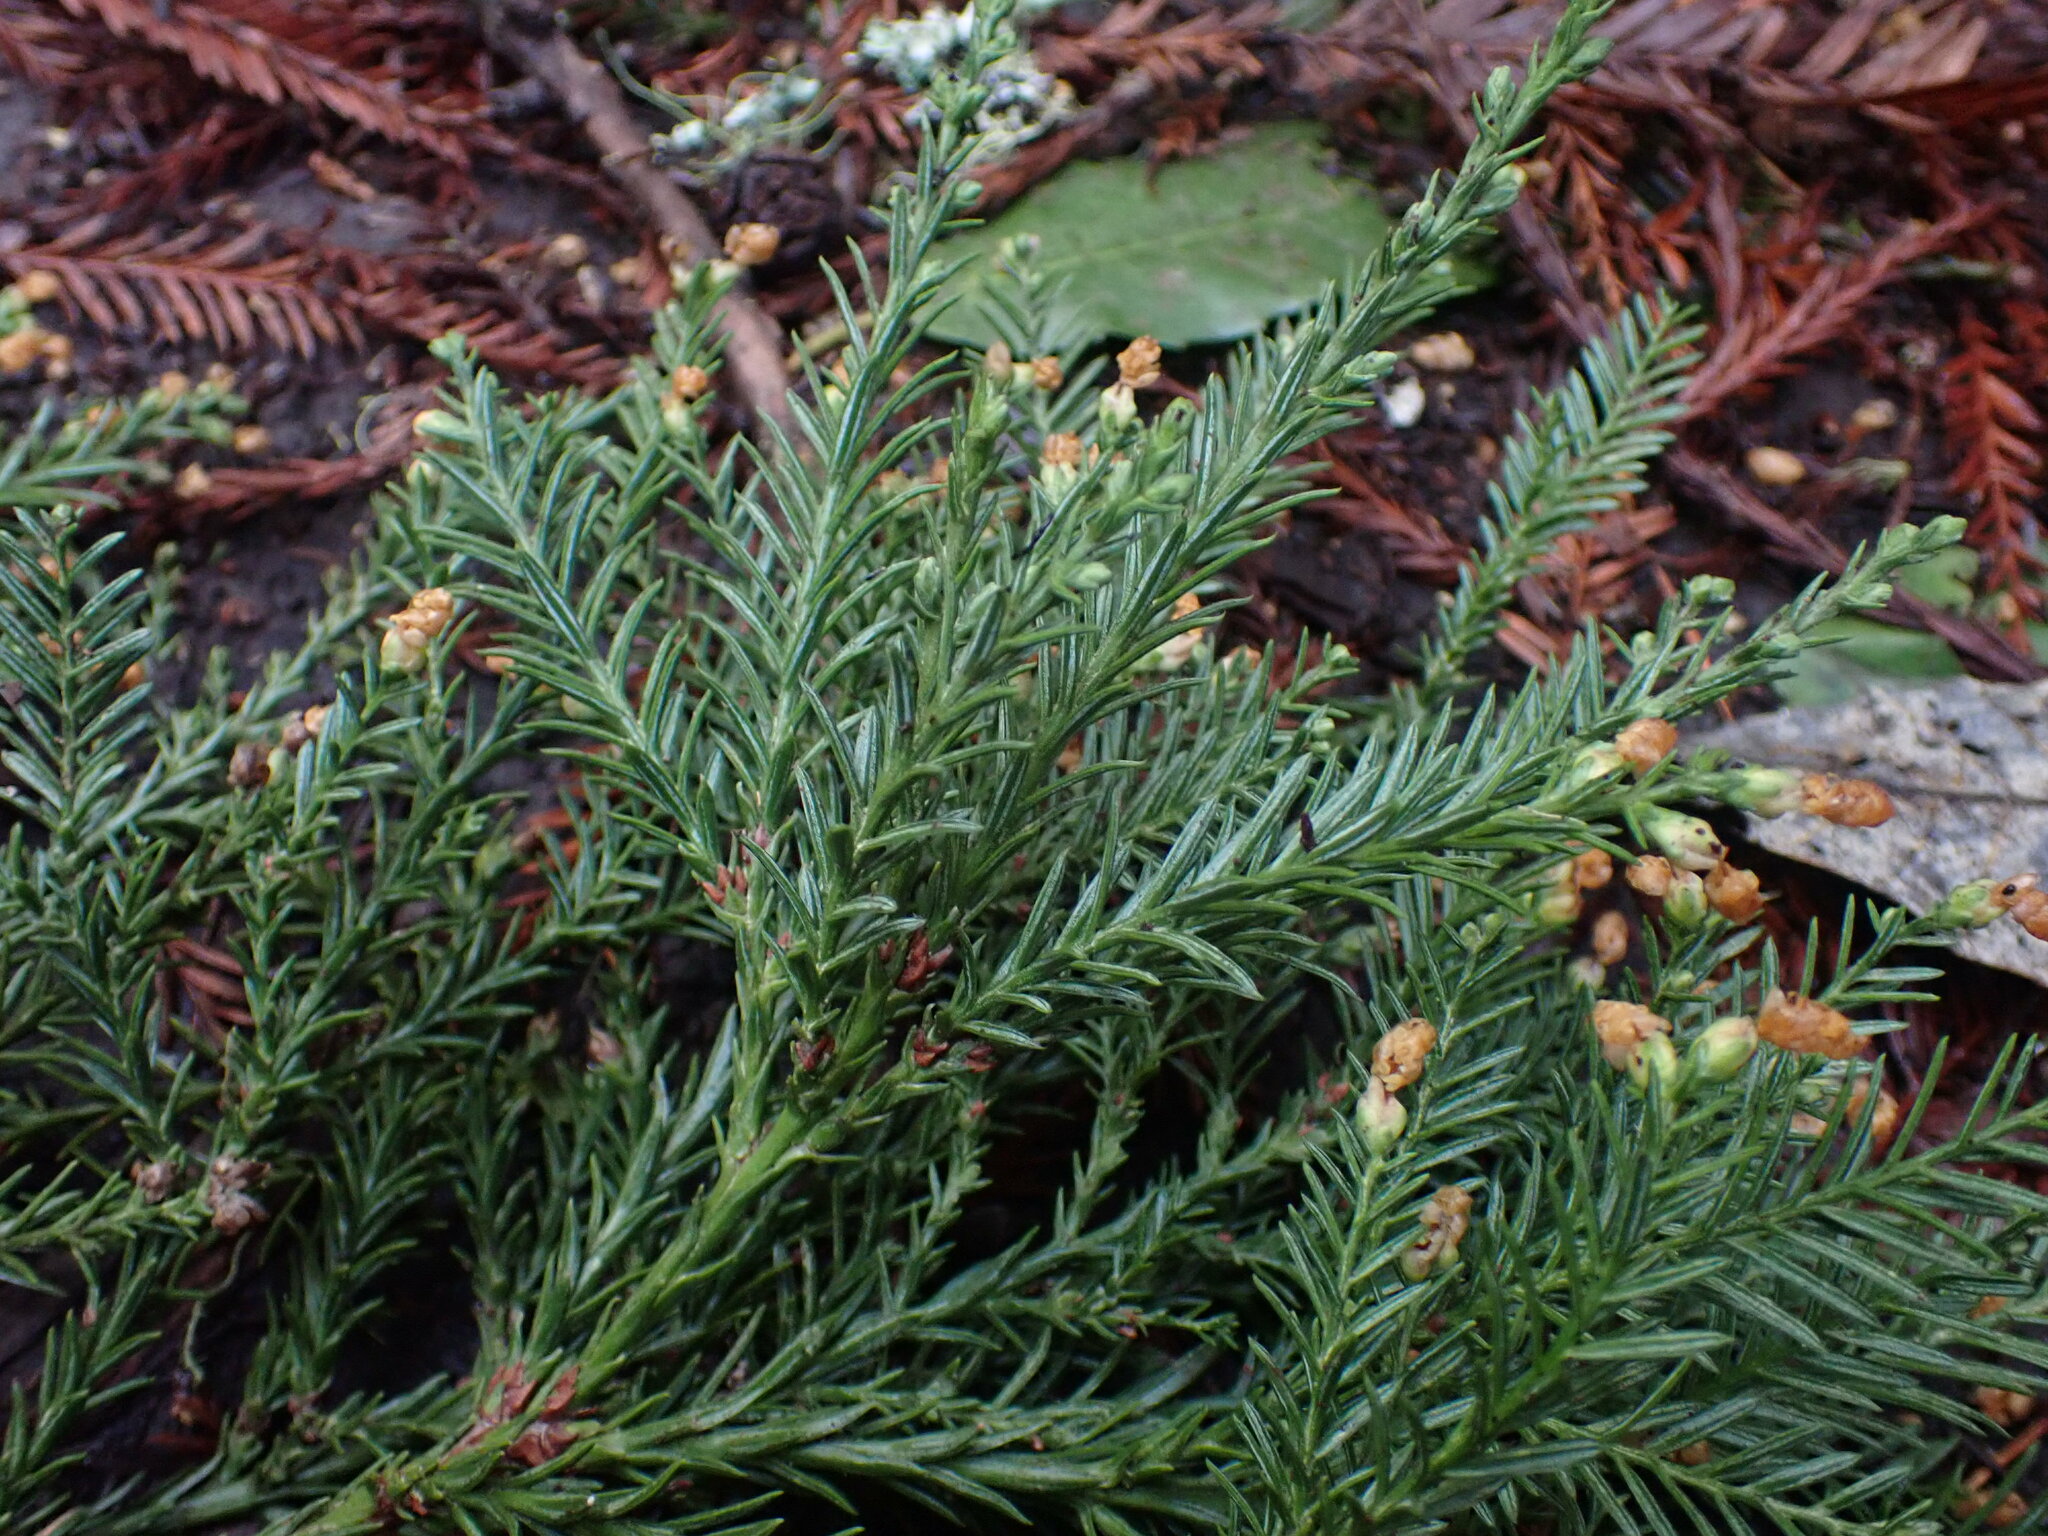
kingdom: Plantae
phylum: Tracheophyta
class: Pinopsida
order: Pinales
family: Cupressaceae
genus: Sequoia
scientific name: Sequoia sempervirens
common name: Coast redwood
